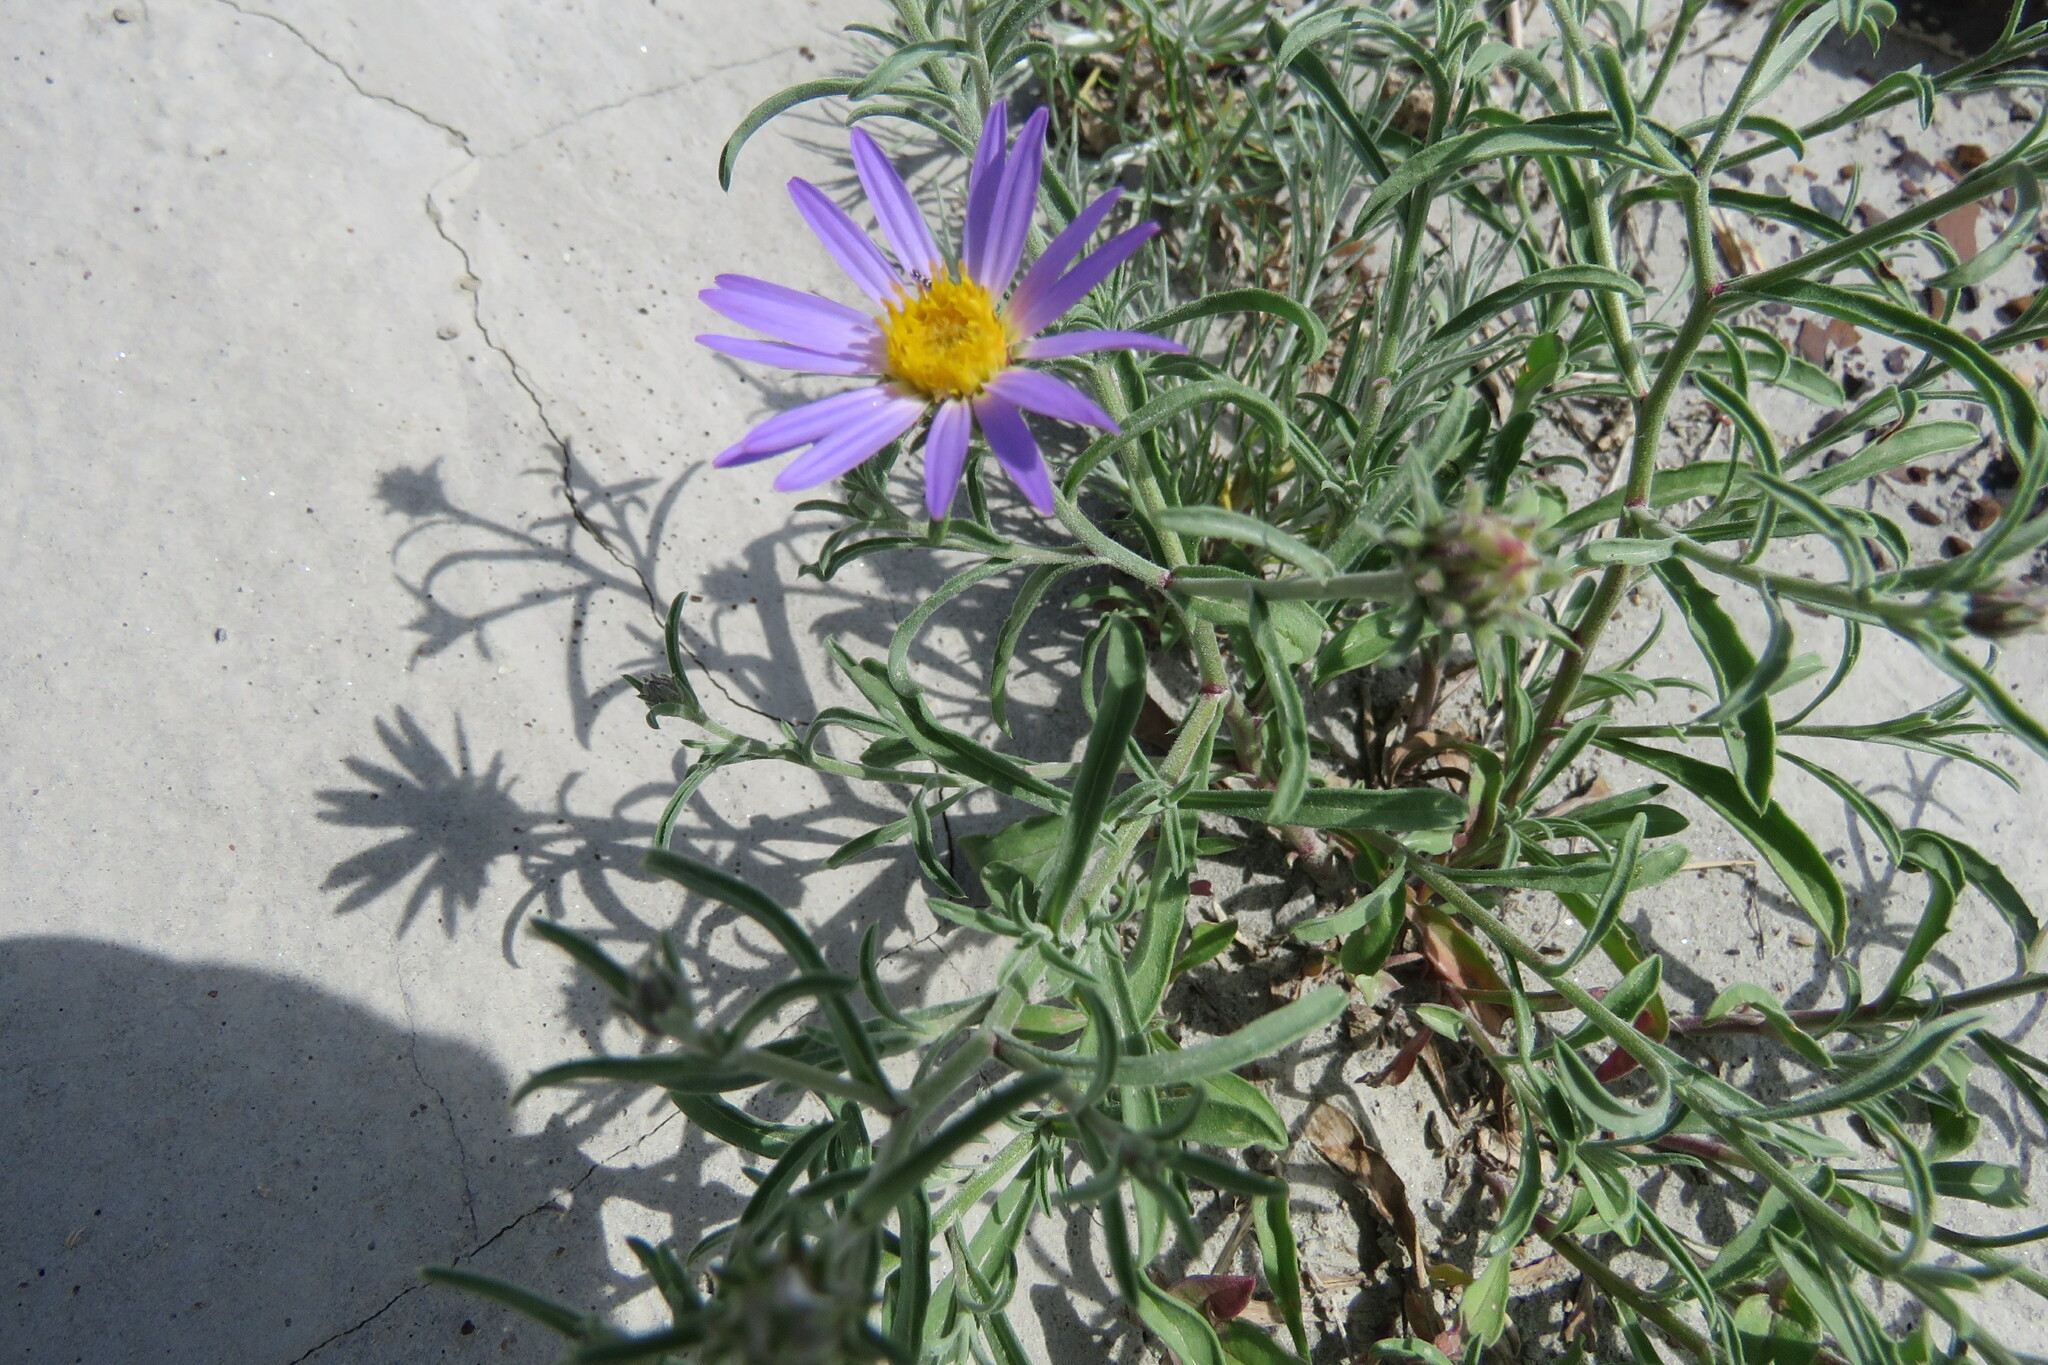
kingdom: Plantae
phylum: Tracheophyta
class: Magnoliopsida
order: Asterales
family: Asteraceae
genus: Dieteria
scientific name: Dieteria canescens
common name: Hoary-aster
